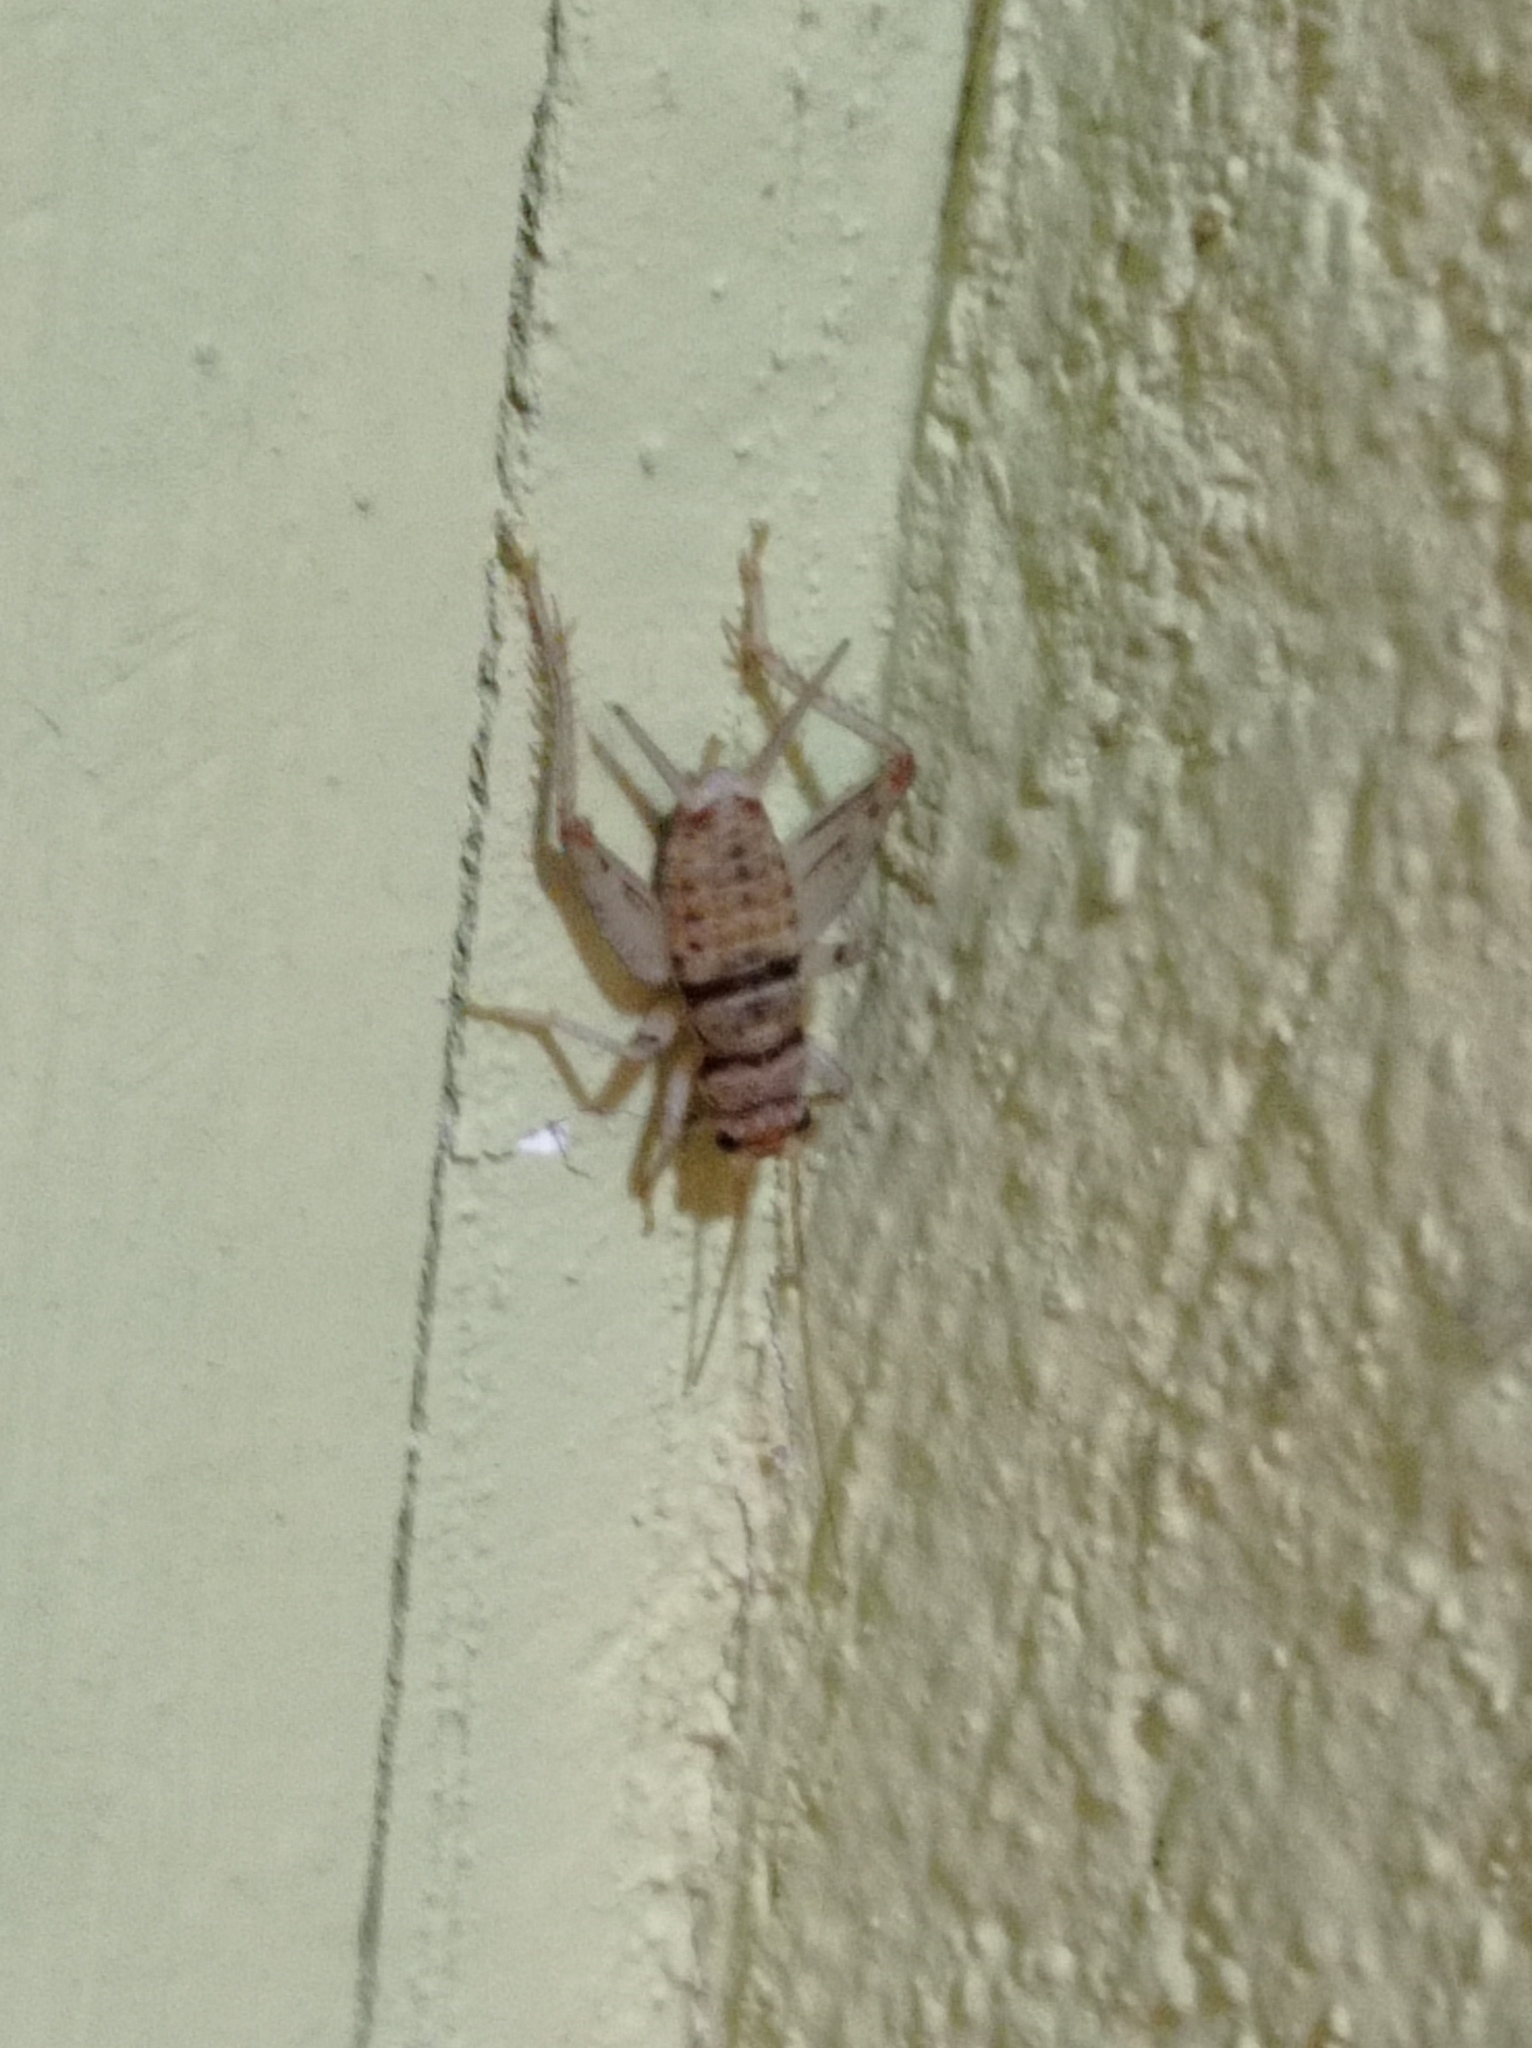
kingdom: Animalia
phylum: Arthropoda
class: Insecta
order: Orthoptera
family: Gryllidae
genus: Gryllodes
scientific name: Gryllodes sigillatus
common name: Tropical house cricket
